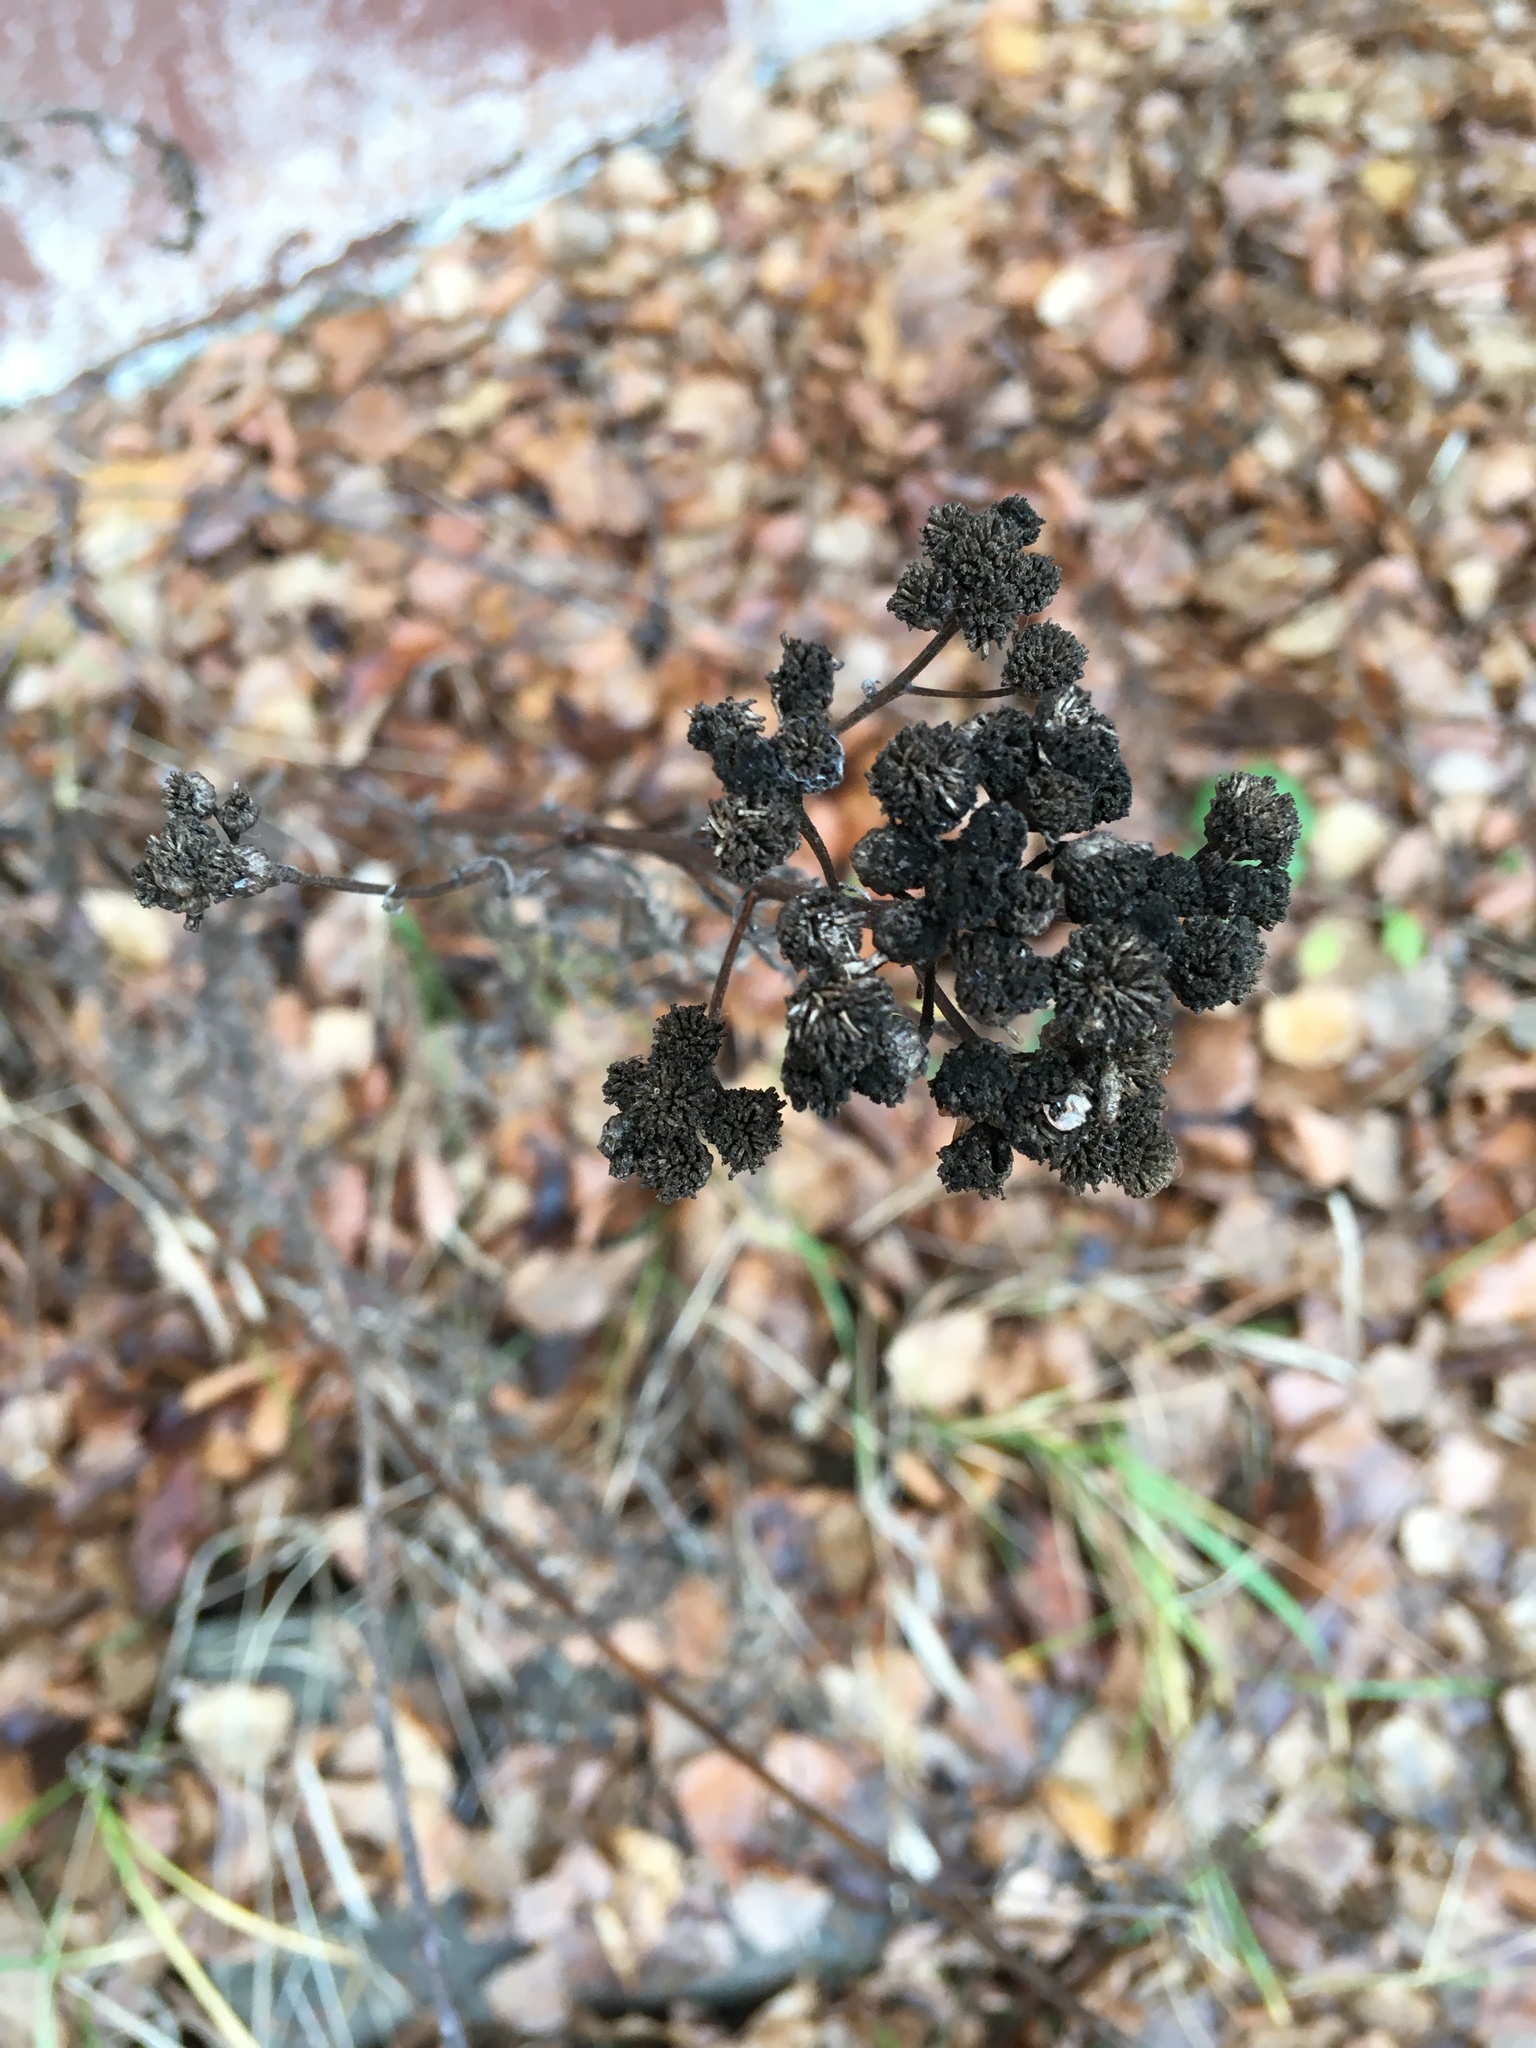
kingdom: Plantae
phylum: Tracheophyta
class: Magnoliopsida
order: Asterales
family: Asteraceae
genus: Tanacetum
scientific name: Tanacetum vulgare
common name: Common tansy
